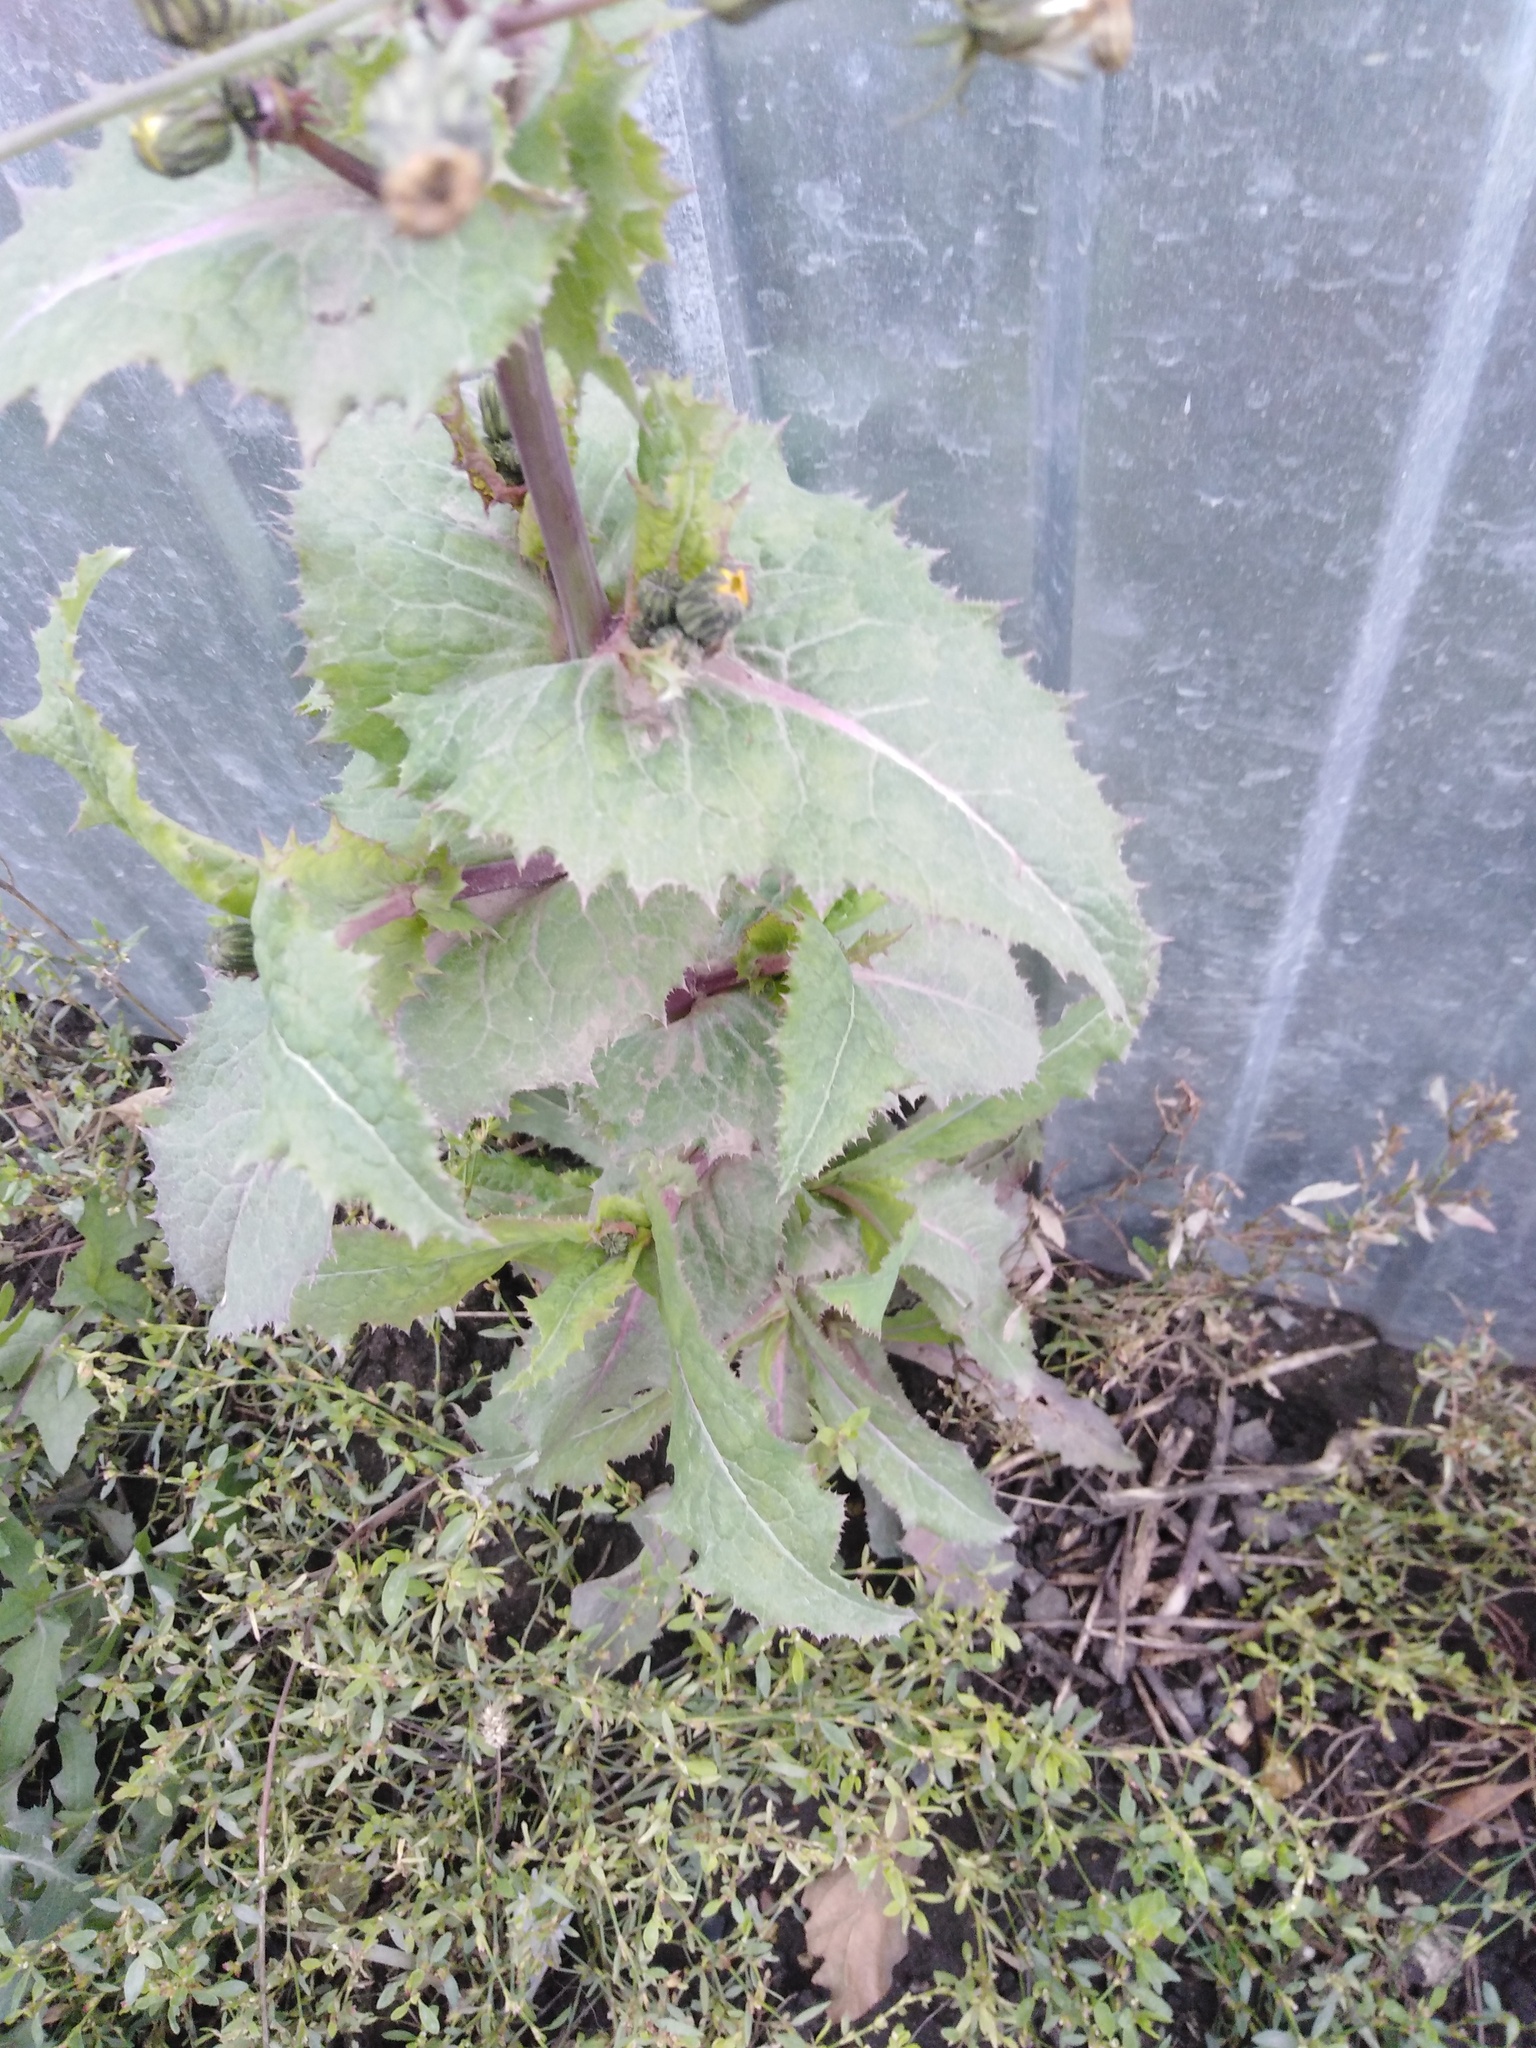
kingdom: Plantae
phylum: Tracheophyta
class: Magnoliopsida
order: Asterales
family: Asteraceae
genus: Sonchus
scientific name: Sonchus asper
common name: Prickly sow-thistle
